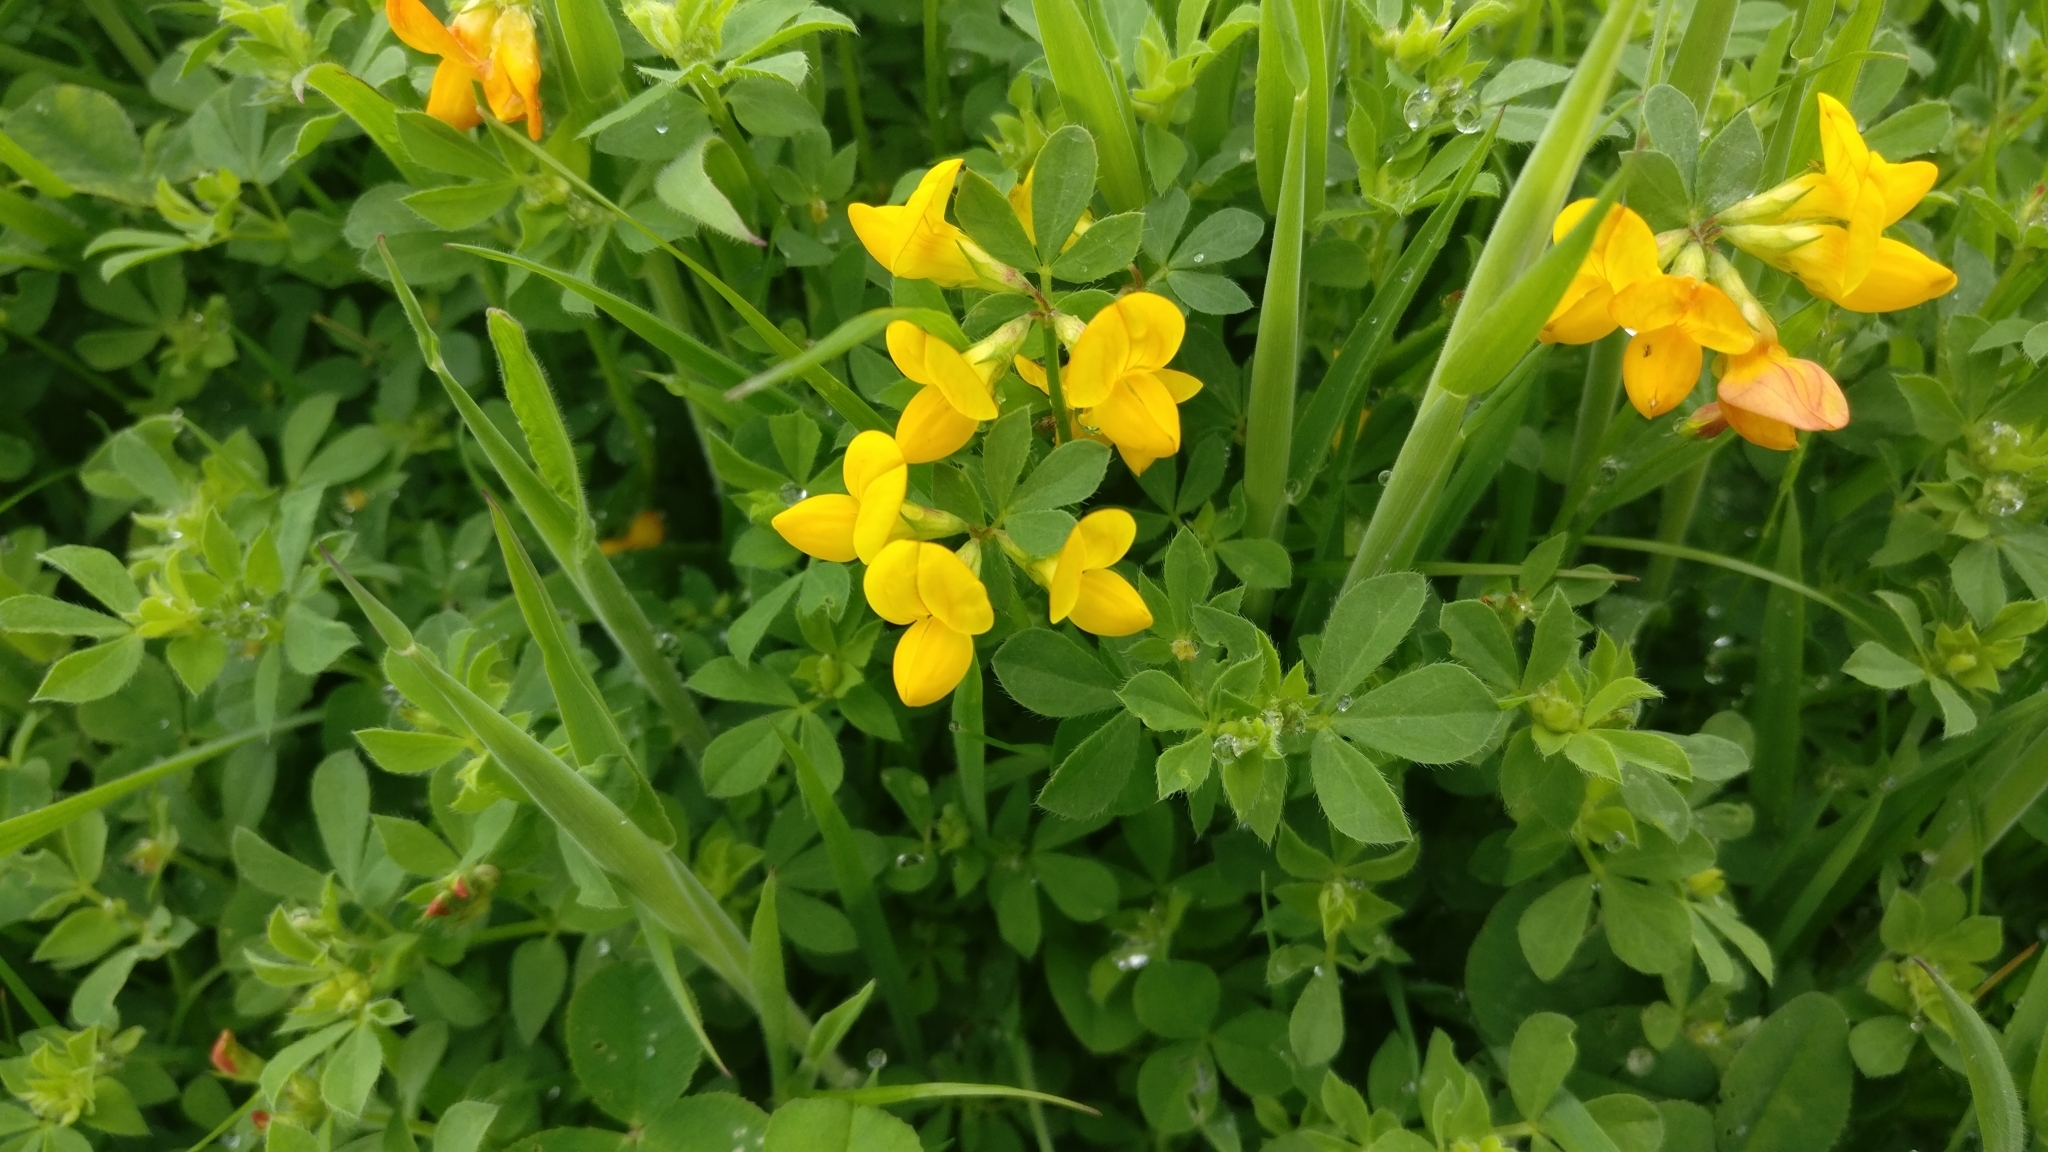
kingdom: Plantae
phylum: Tracheophyta
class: Magnoliopsida
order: Fabales
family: Fabaceae
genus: Lotus
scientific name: Lotus corniculatus
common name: Common bird's-foot-trefoil
